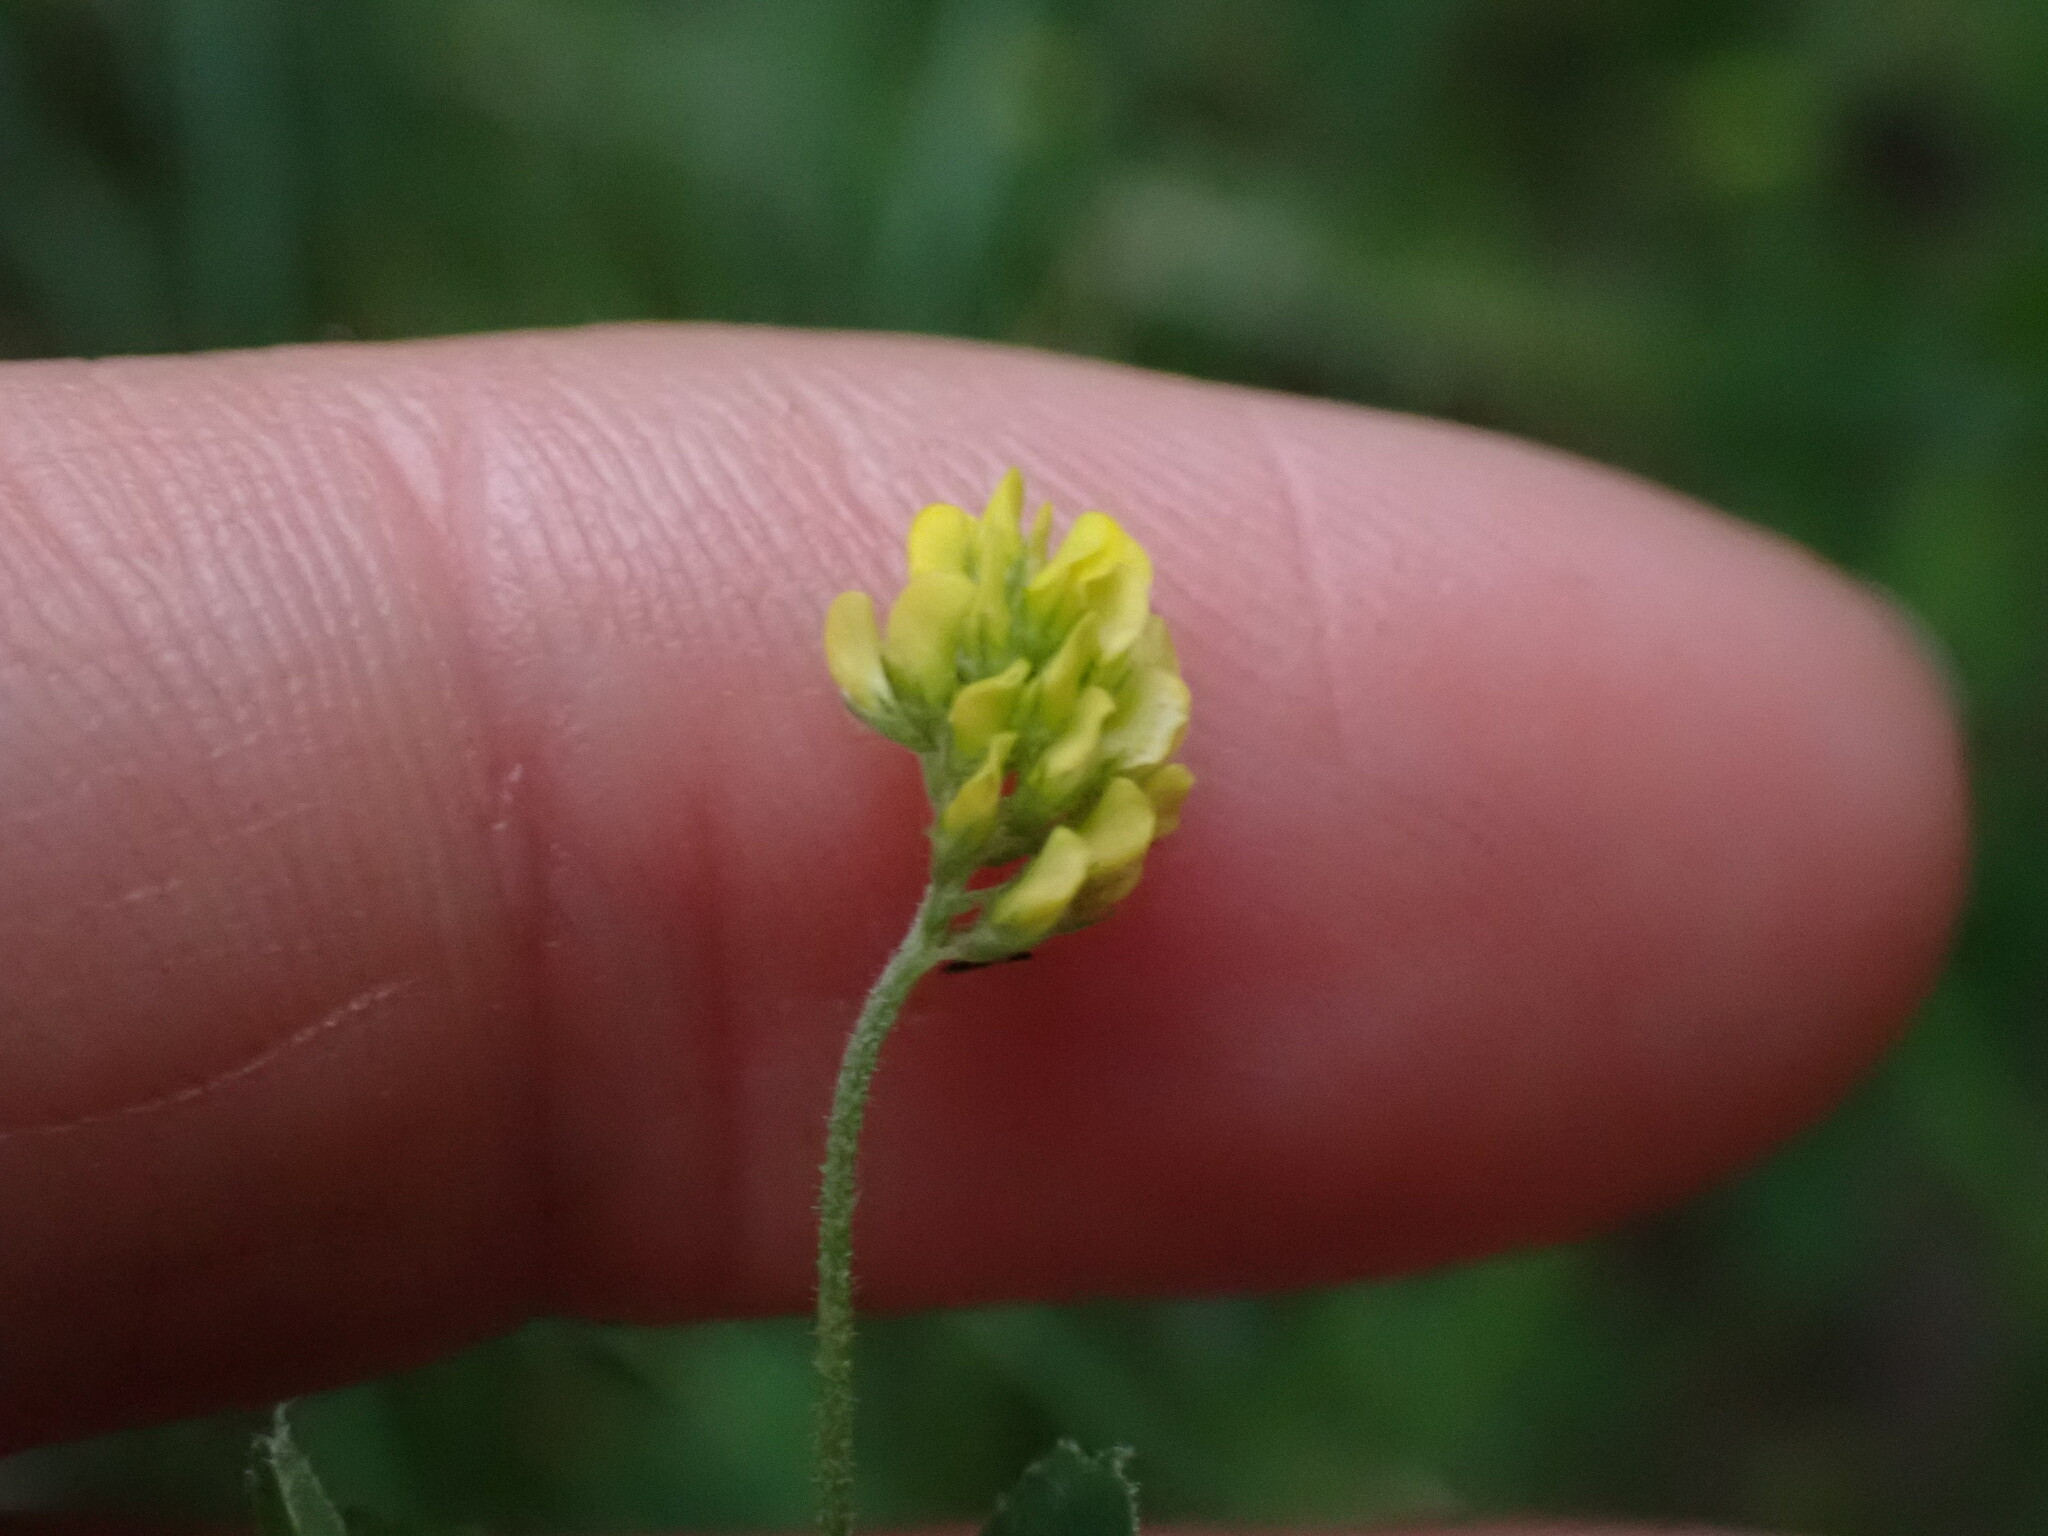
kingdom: Plantae
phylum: Tracheophyta
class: Magnoliopsida
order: Fabales
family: Fabaceae
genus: Medicago
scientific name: Medicago lupulina
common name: Black medick
